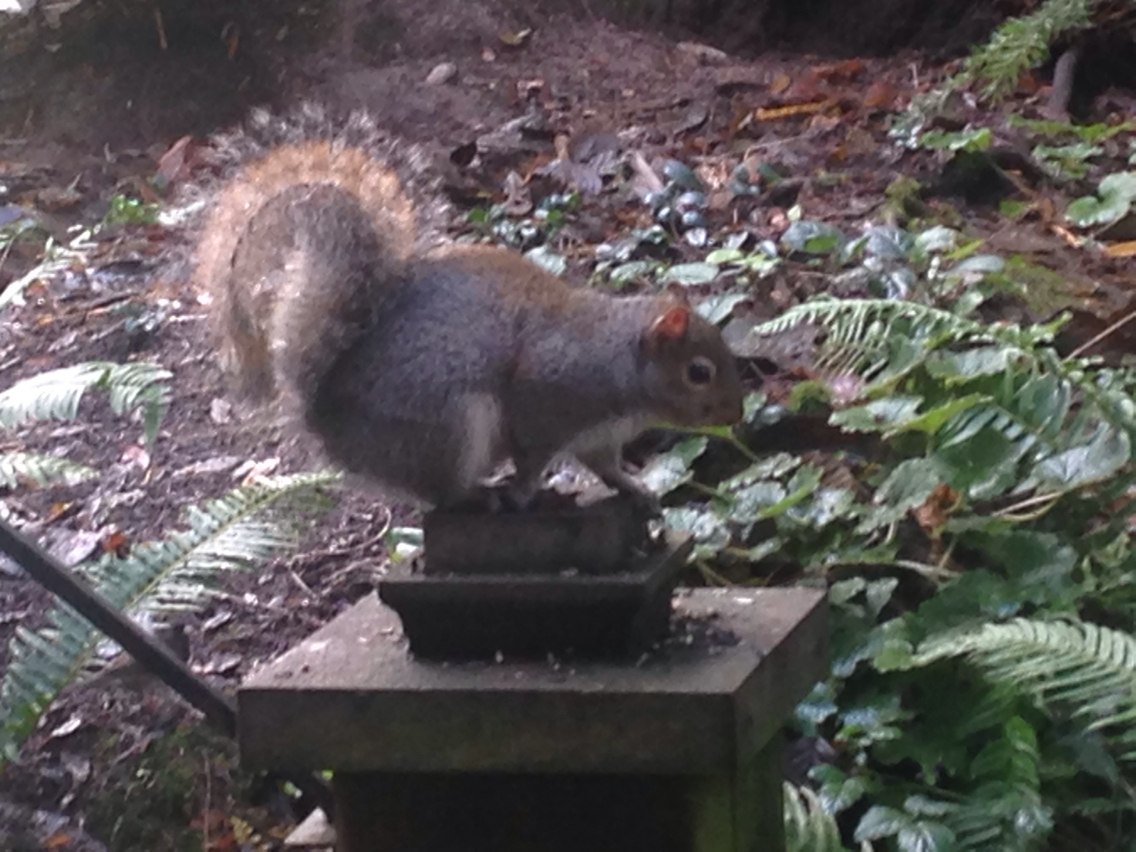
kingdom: Animalia
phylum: Chordata
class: Mammalia
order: Rodentia
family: Sciuridae
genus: Sciurus
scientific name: Sciurus carolinensis
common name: Eastern gray squirrel
